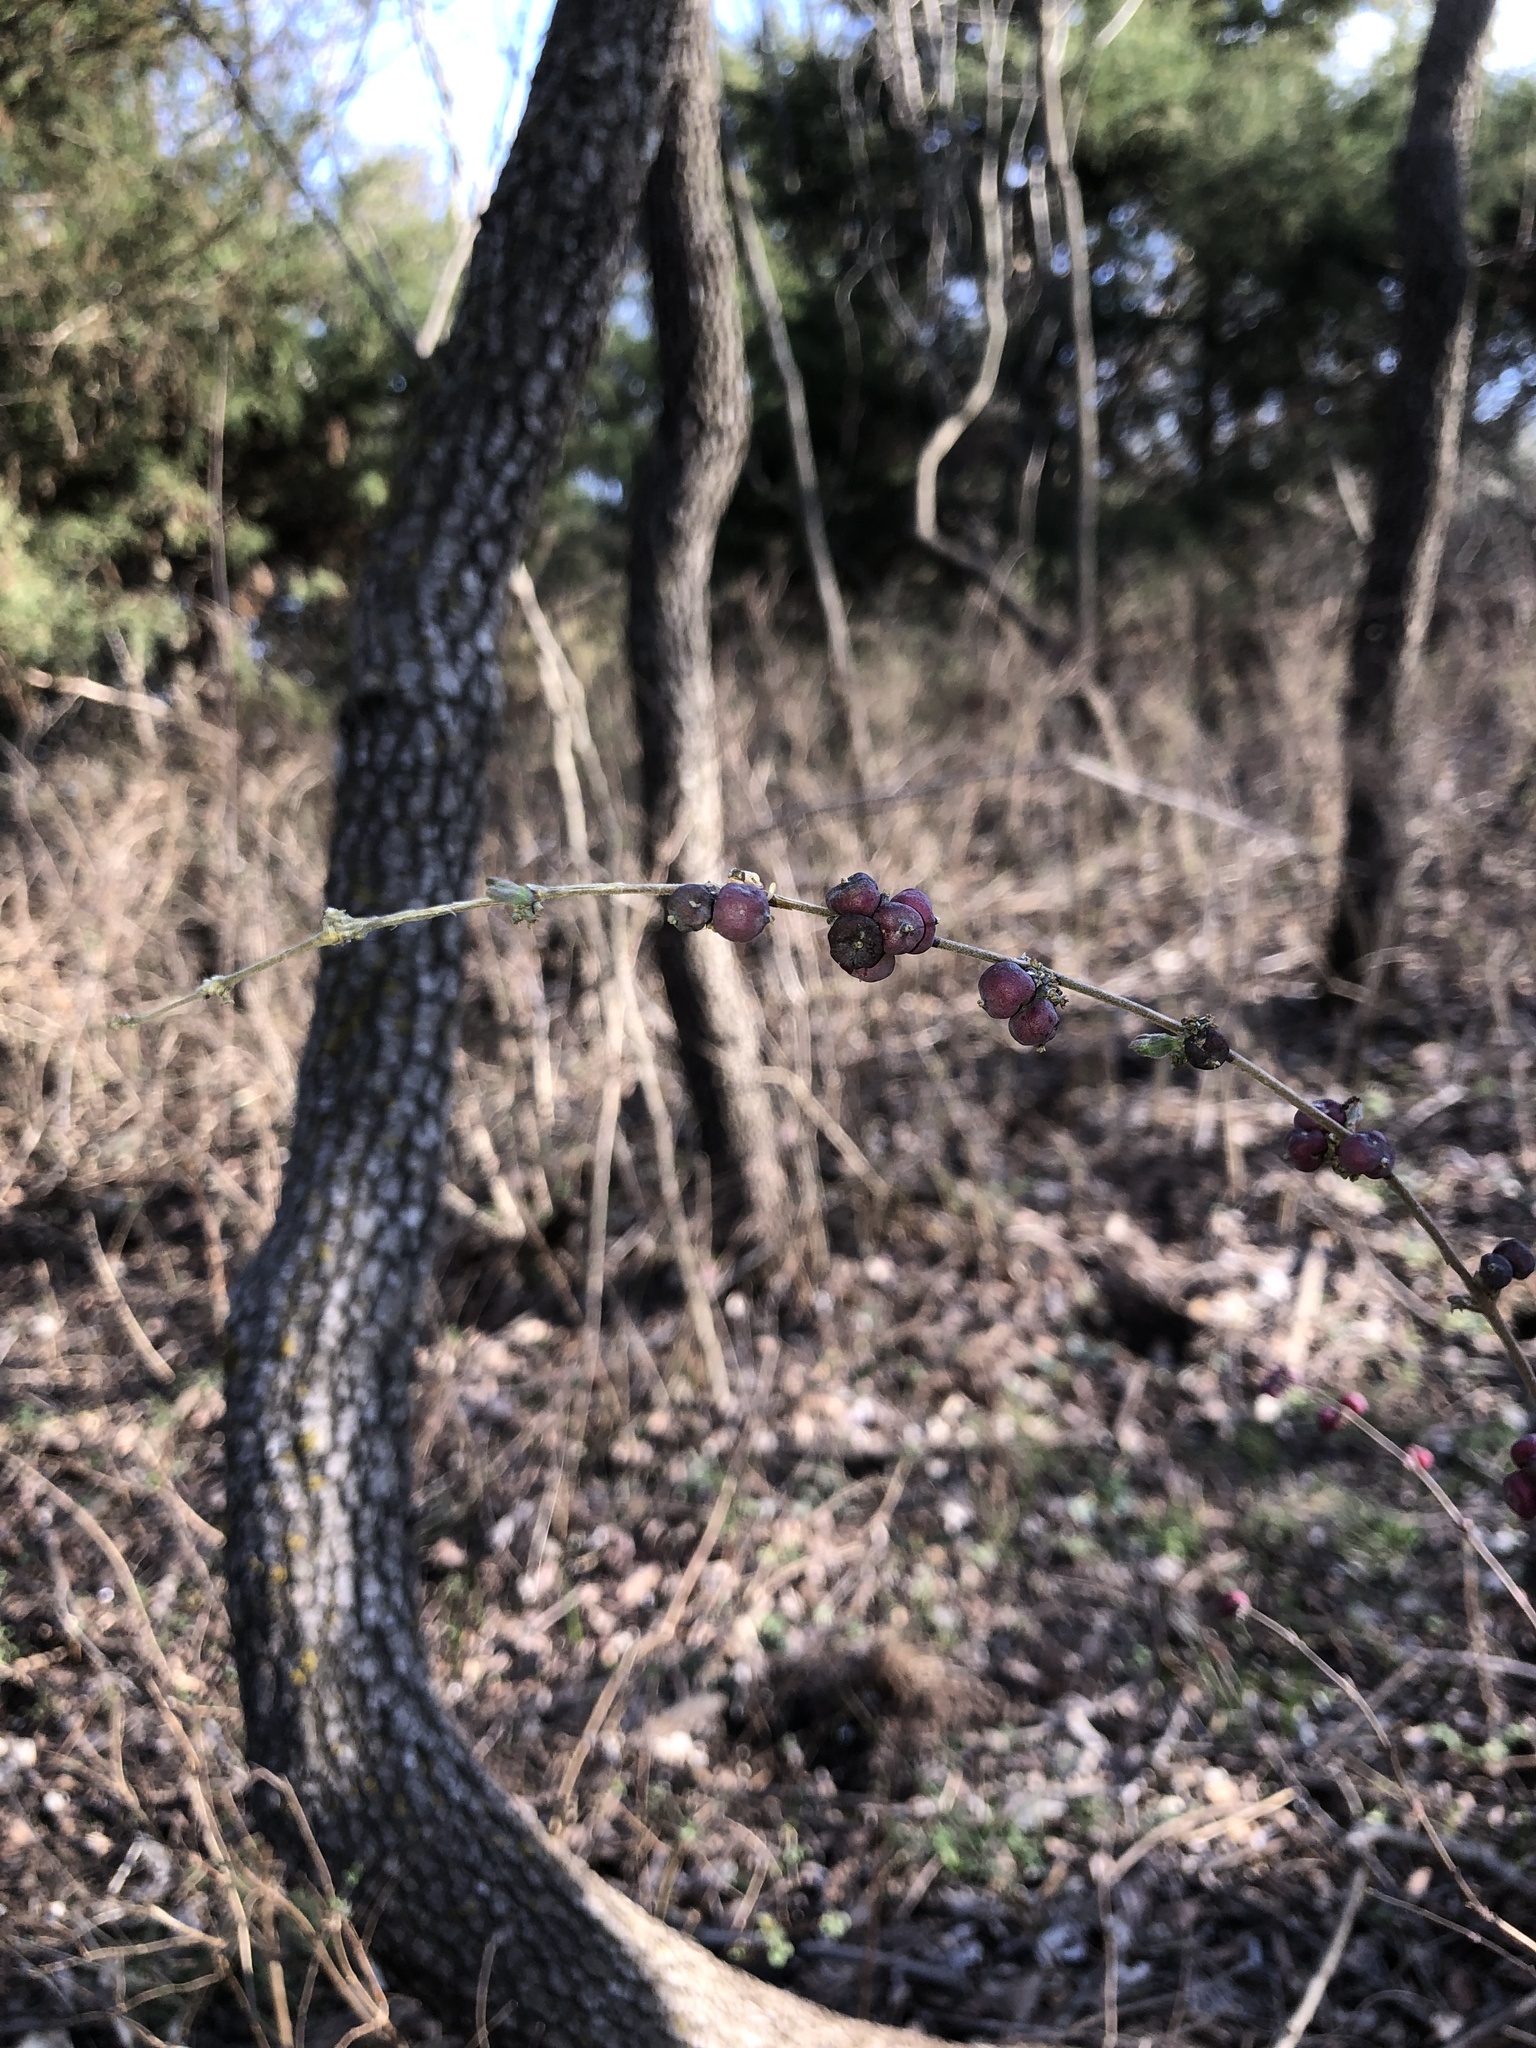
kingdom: Plantae
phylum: Tracheophyta
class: Magnoliopsida
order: Dipsacales
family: Caprifoliaceae
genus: Symphoricarpos
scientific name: Symphoricarpos orbiculatus
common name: Coralberry
